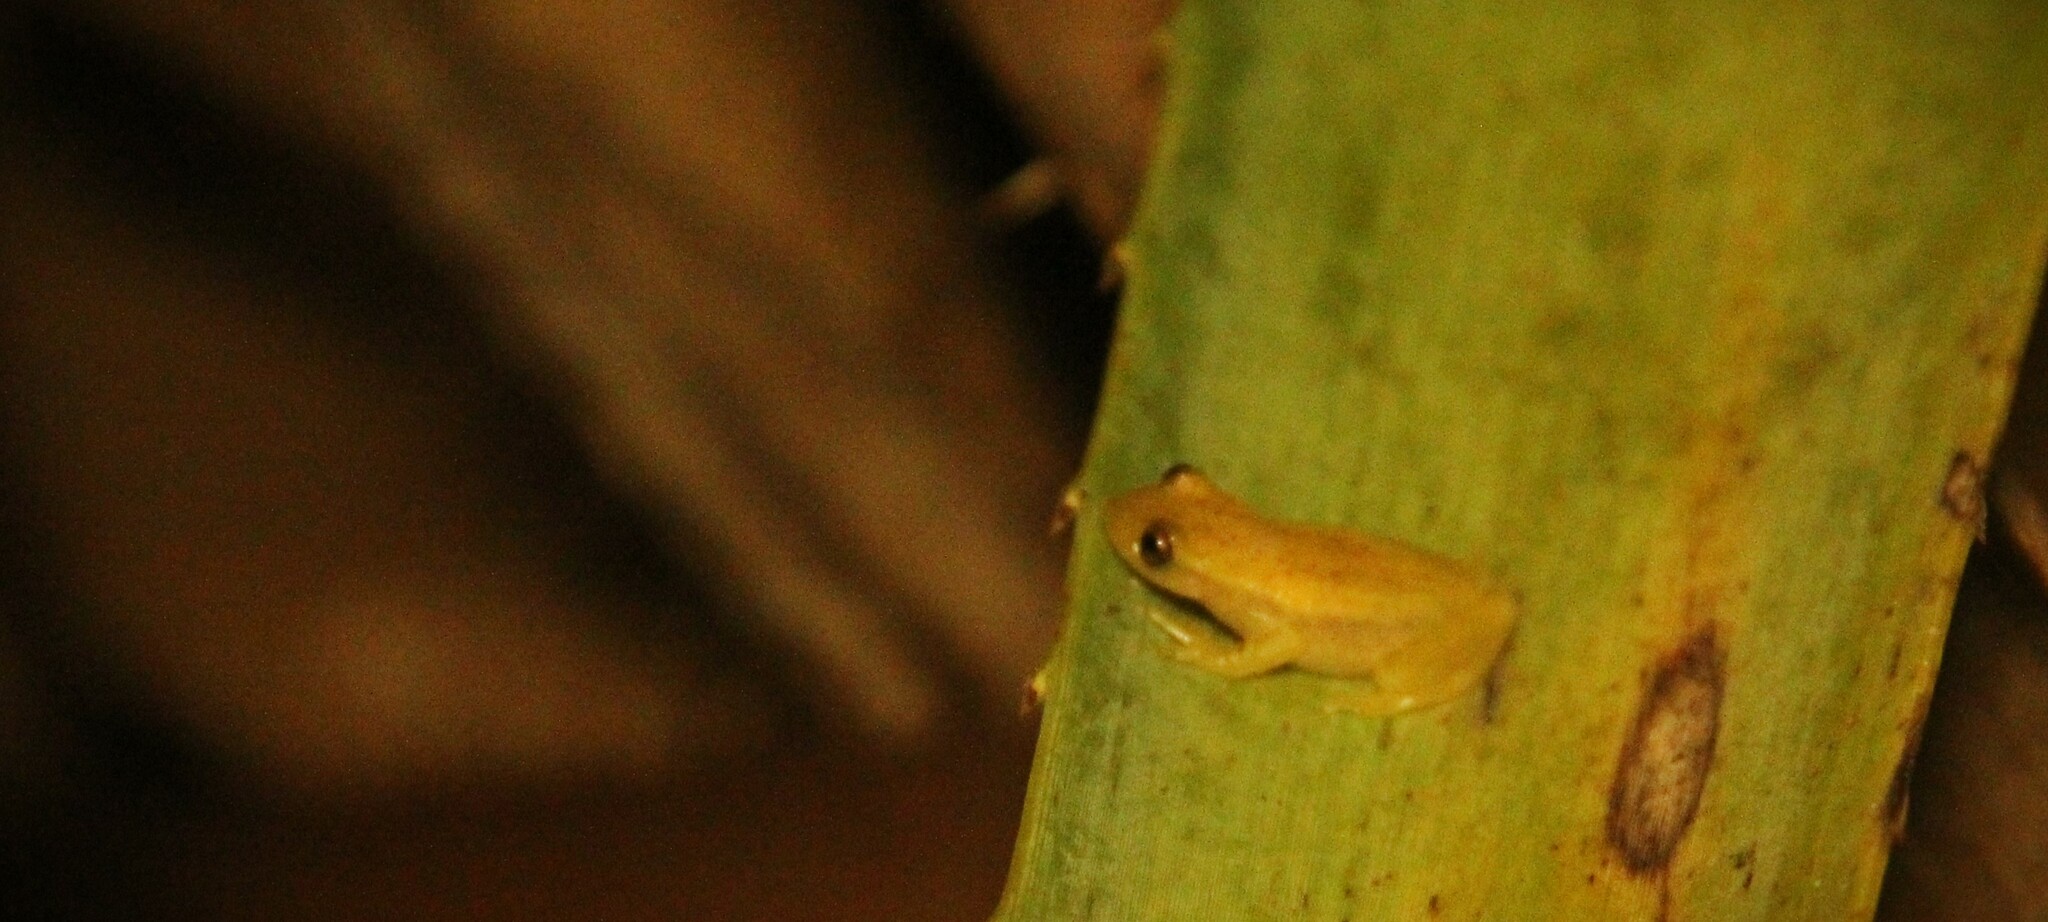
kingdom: Animalia
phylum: Chordata
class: Amphibia
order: Anura
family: Hylidae
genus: Dendropsophus
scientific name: Dendropsophus sanborni
